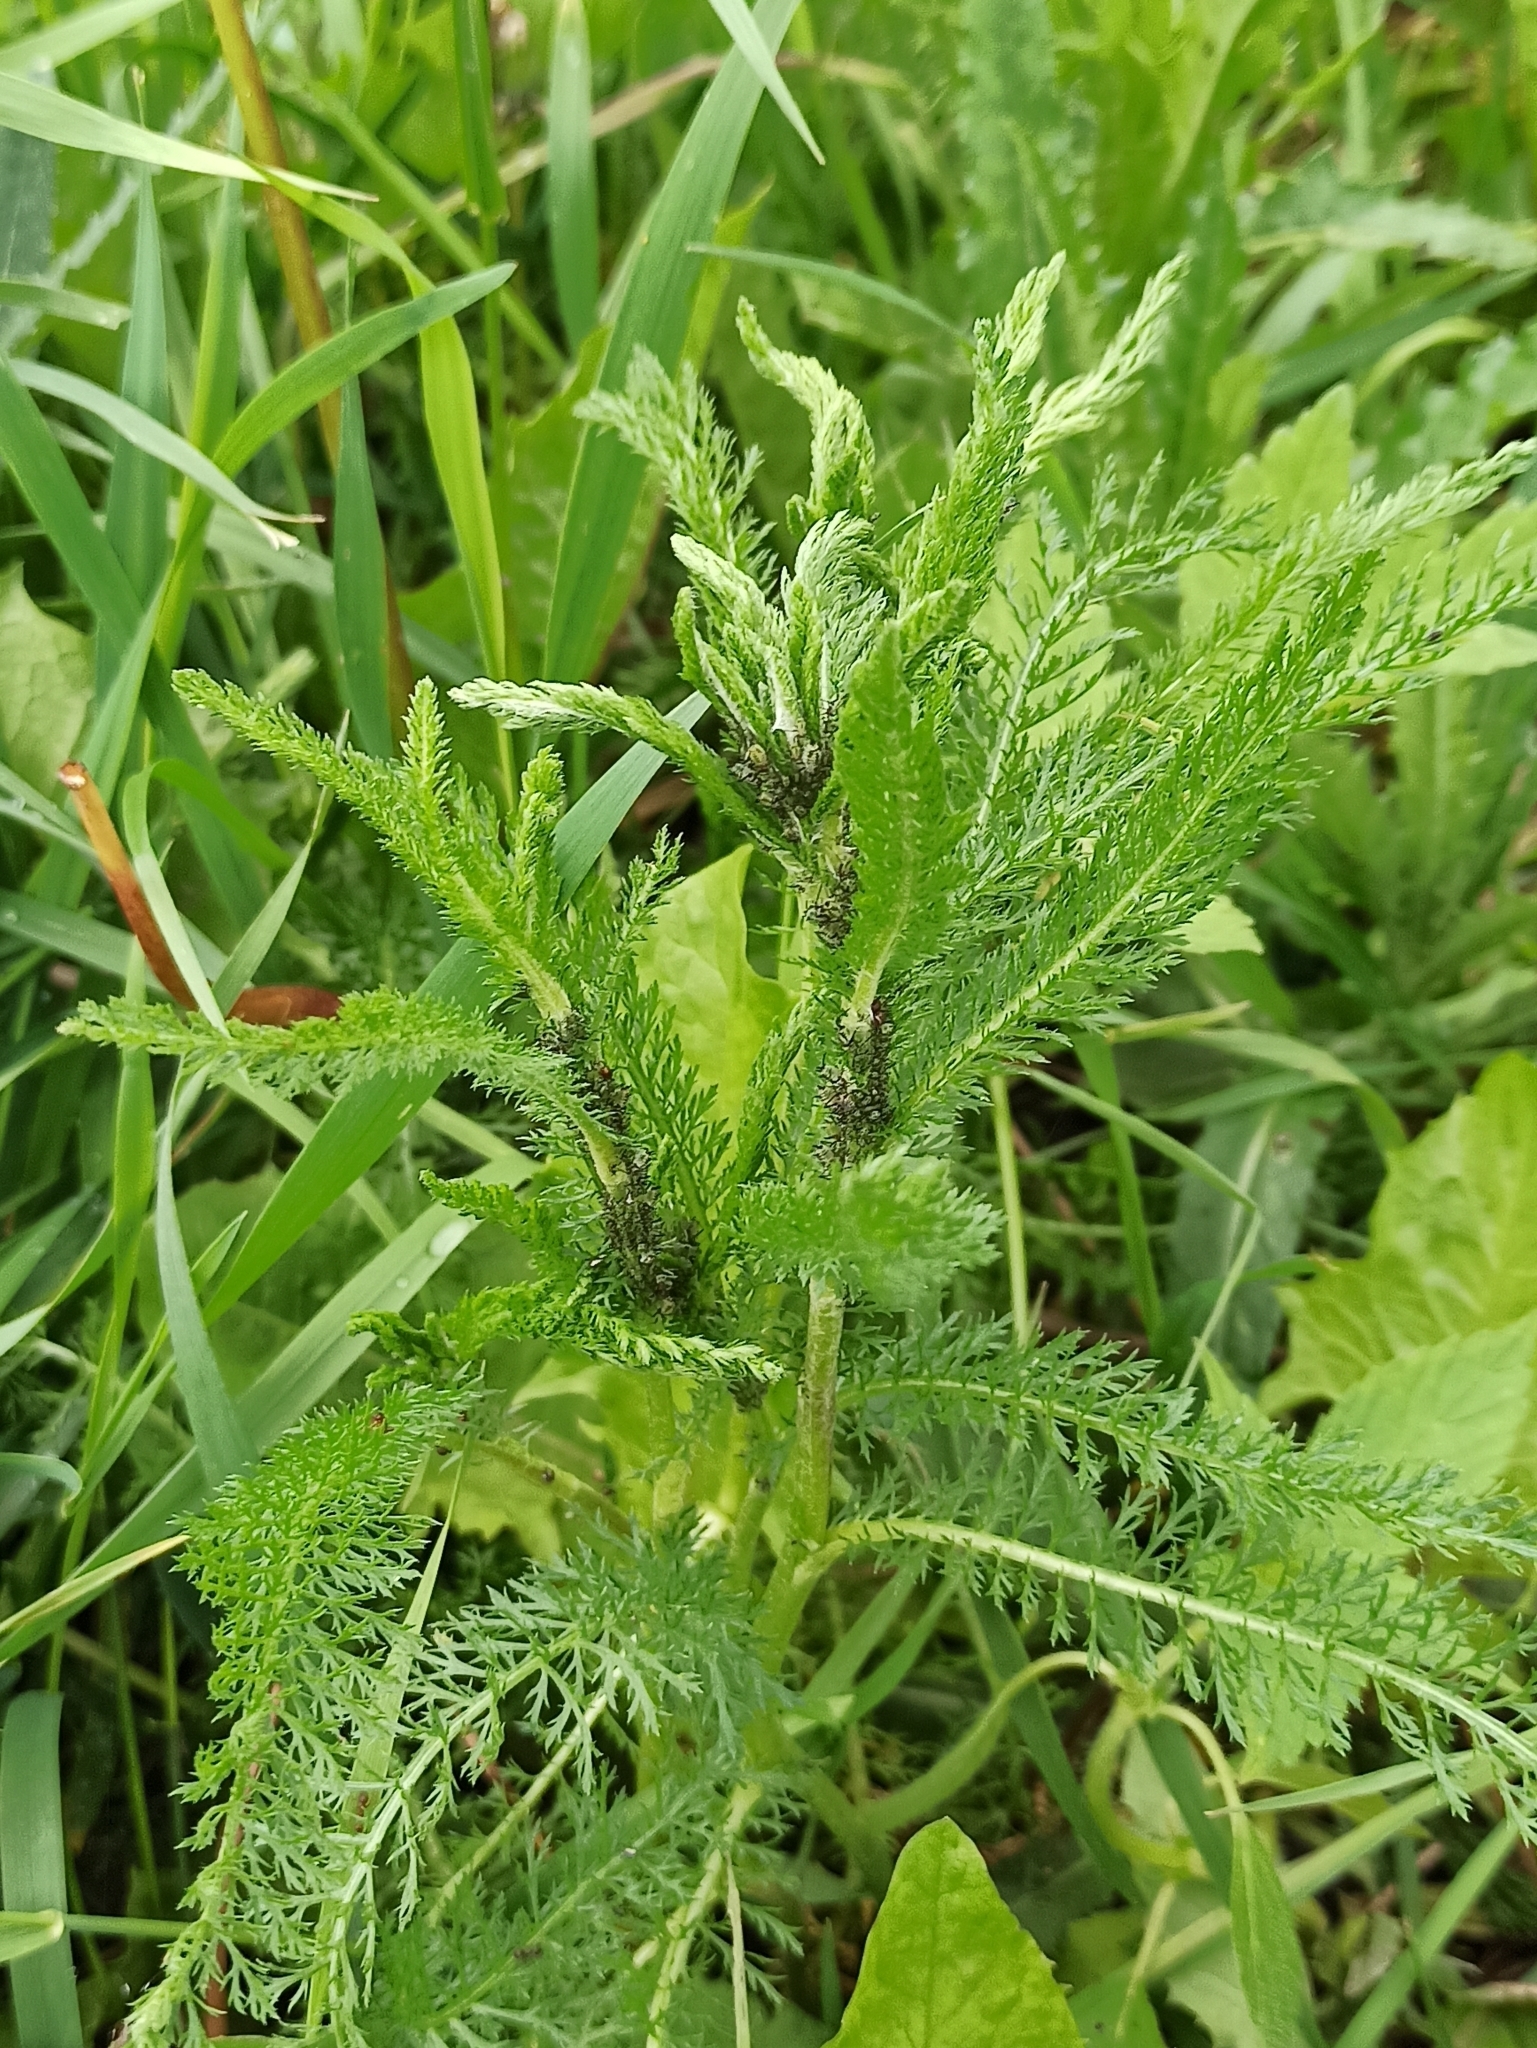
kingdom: Plantae
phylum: Tracheophyta
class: Magnoliopsida
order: Asterales
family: Asteraceae
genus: Achillea
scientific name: Achillea millefolium
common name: Yarrow
